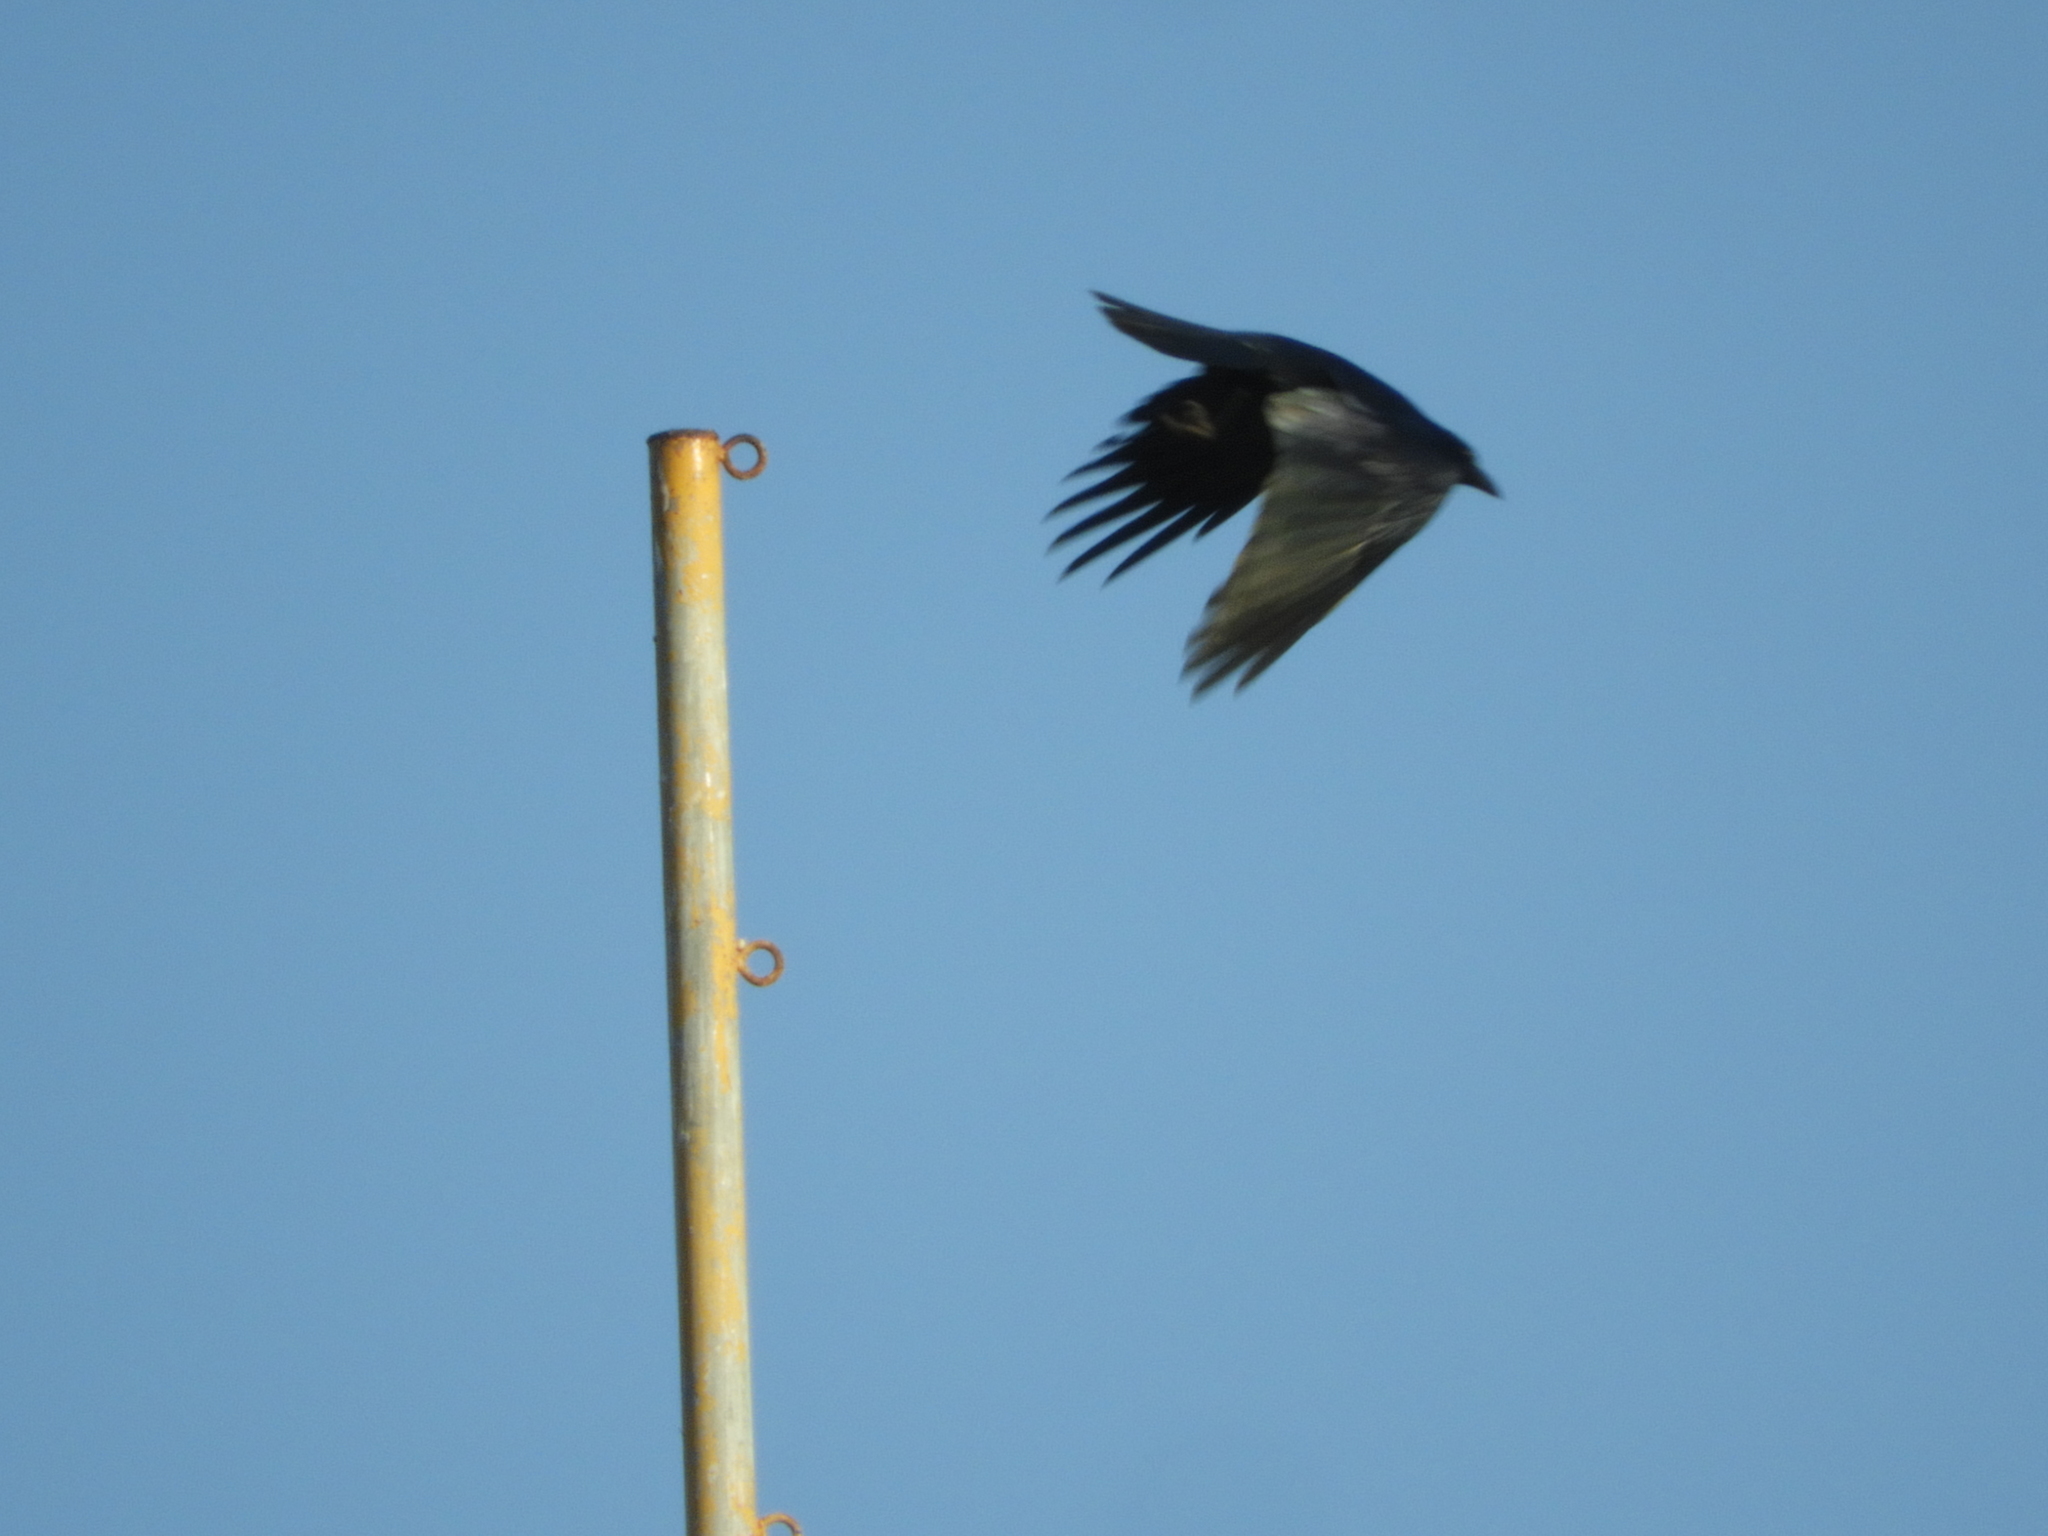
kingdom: Animalia
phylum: Chordata
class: Aves
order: Passeriformes
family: Corvidae
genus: Corvus
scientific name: Corvus sinaloae
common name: Sinaloa crow
